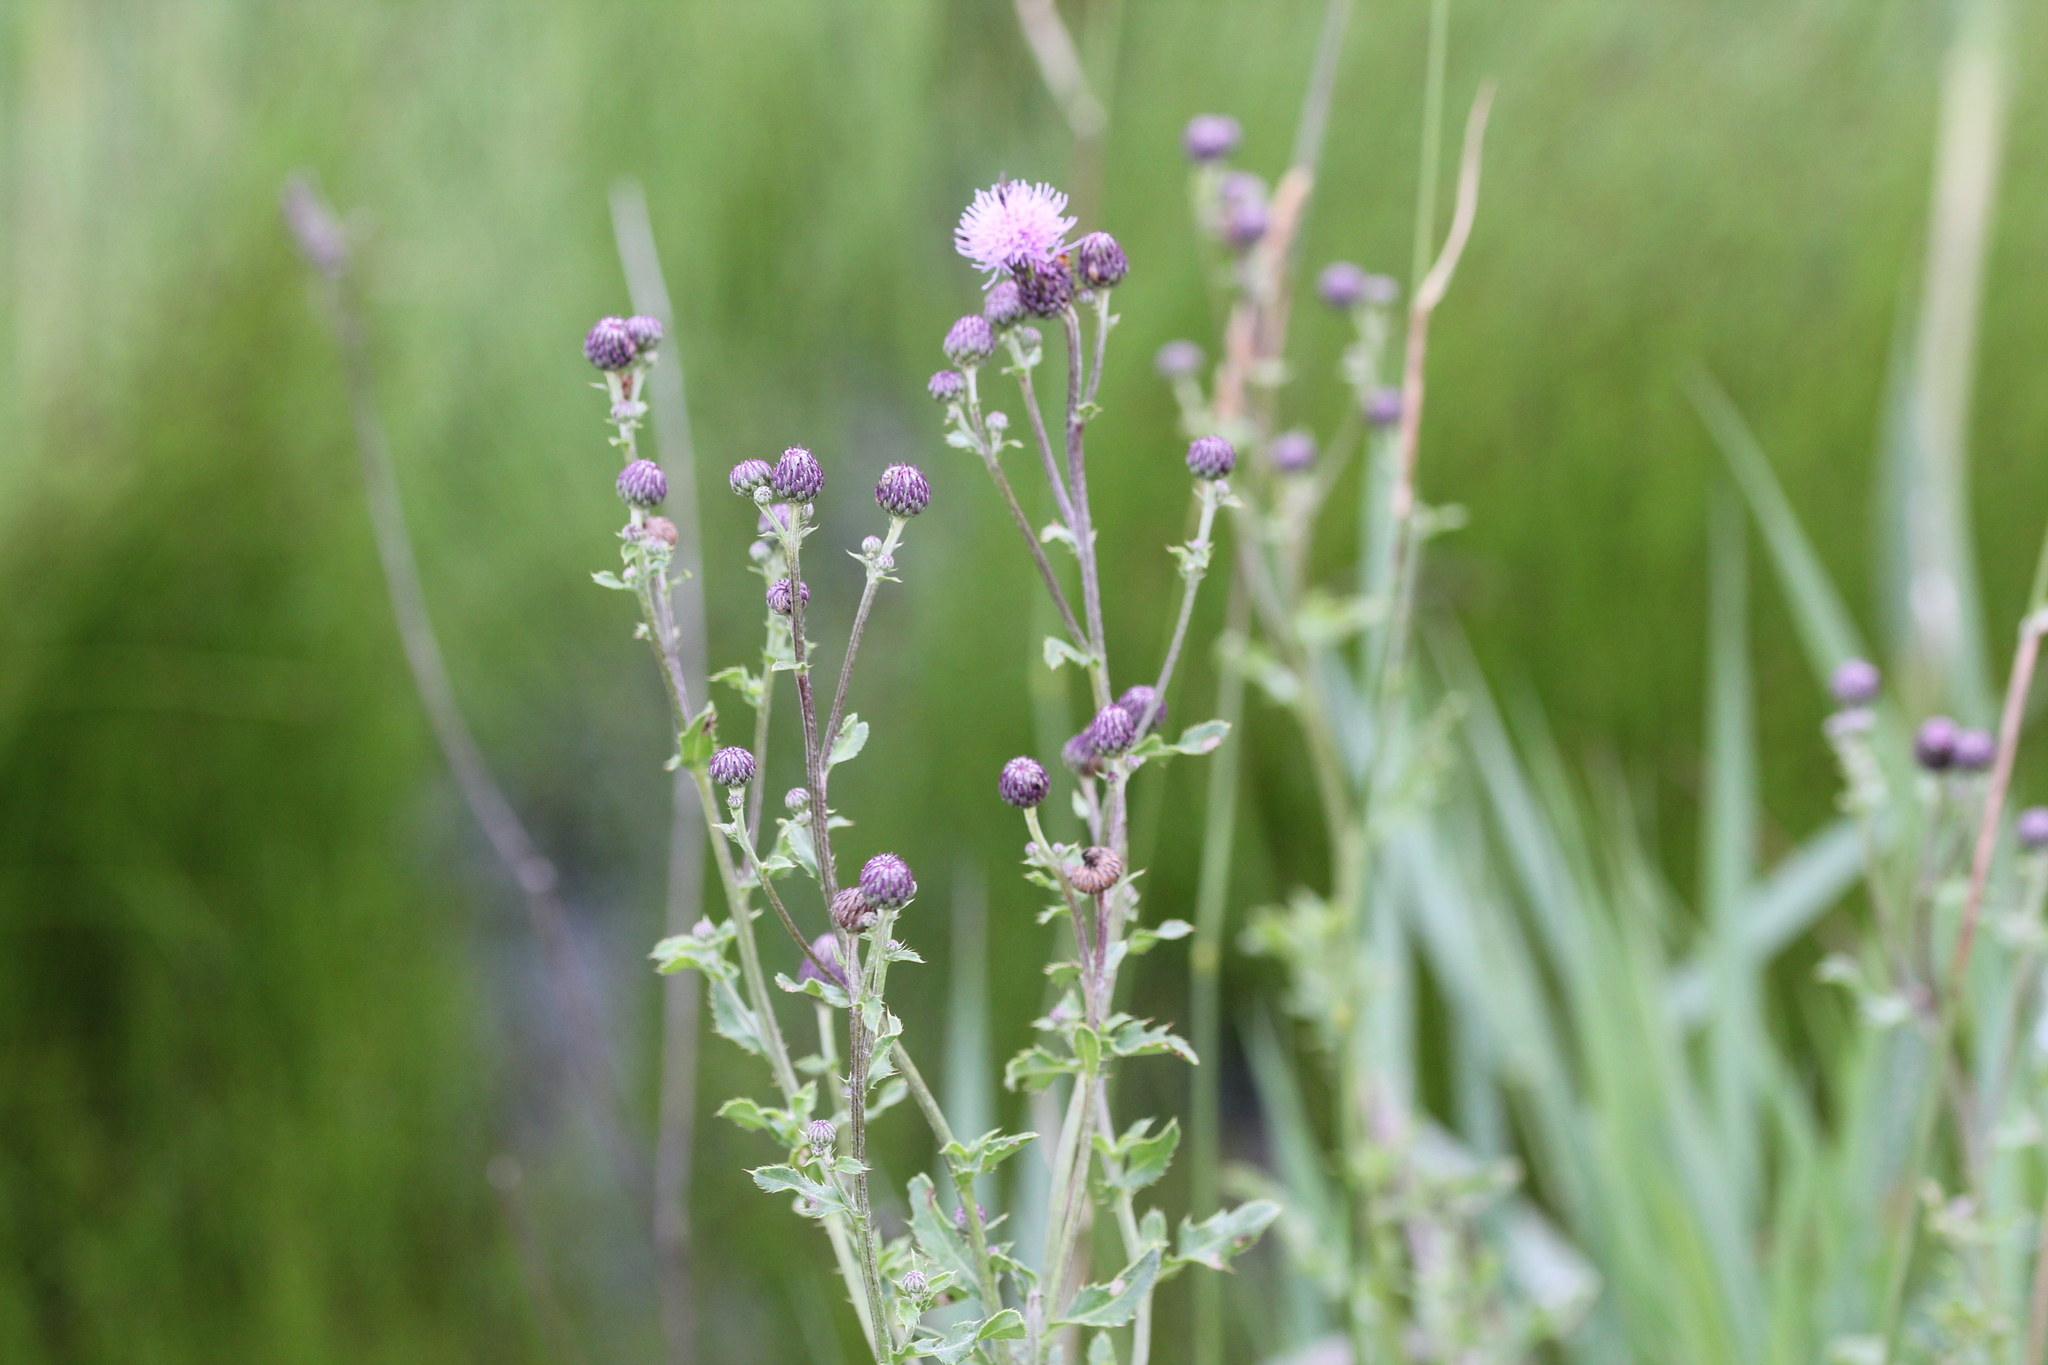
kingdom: Plantae
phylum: Tracheophyta
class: Magnoliopsida
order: Asterales
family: Asteraceae
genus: Cirsium
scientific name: Cirsium arvense
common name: Creeping thistle
